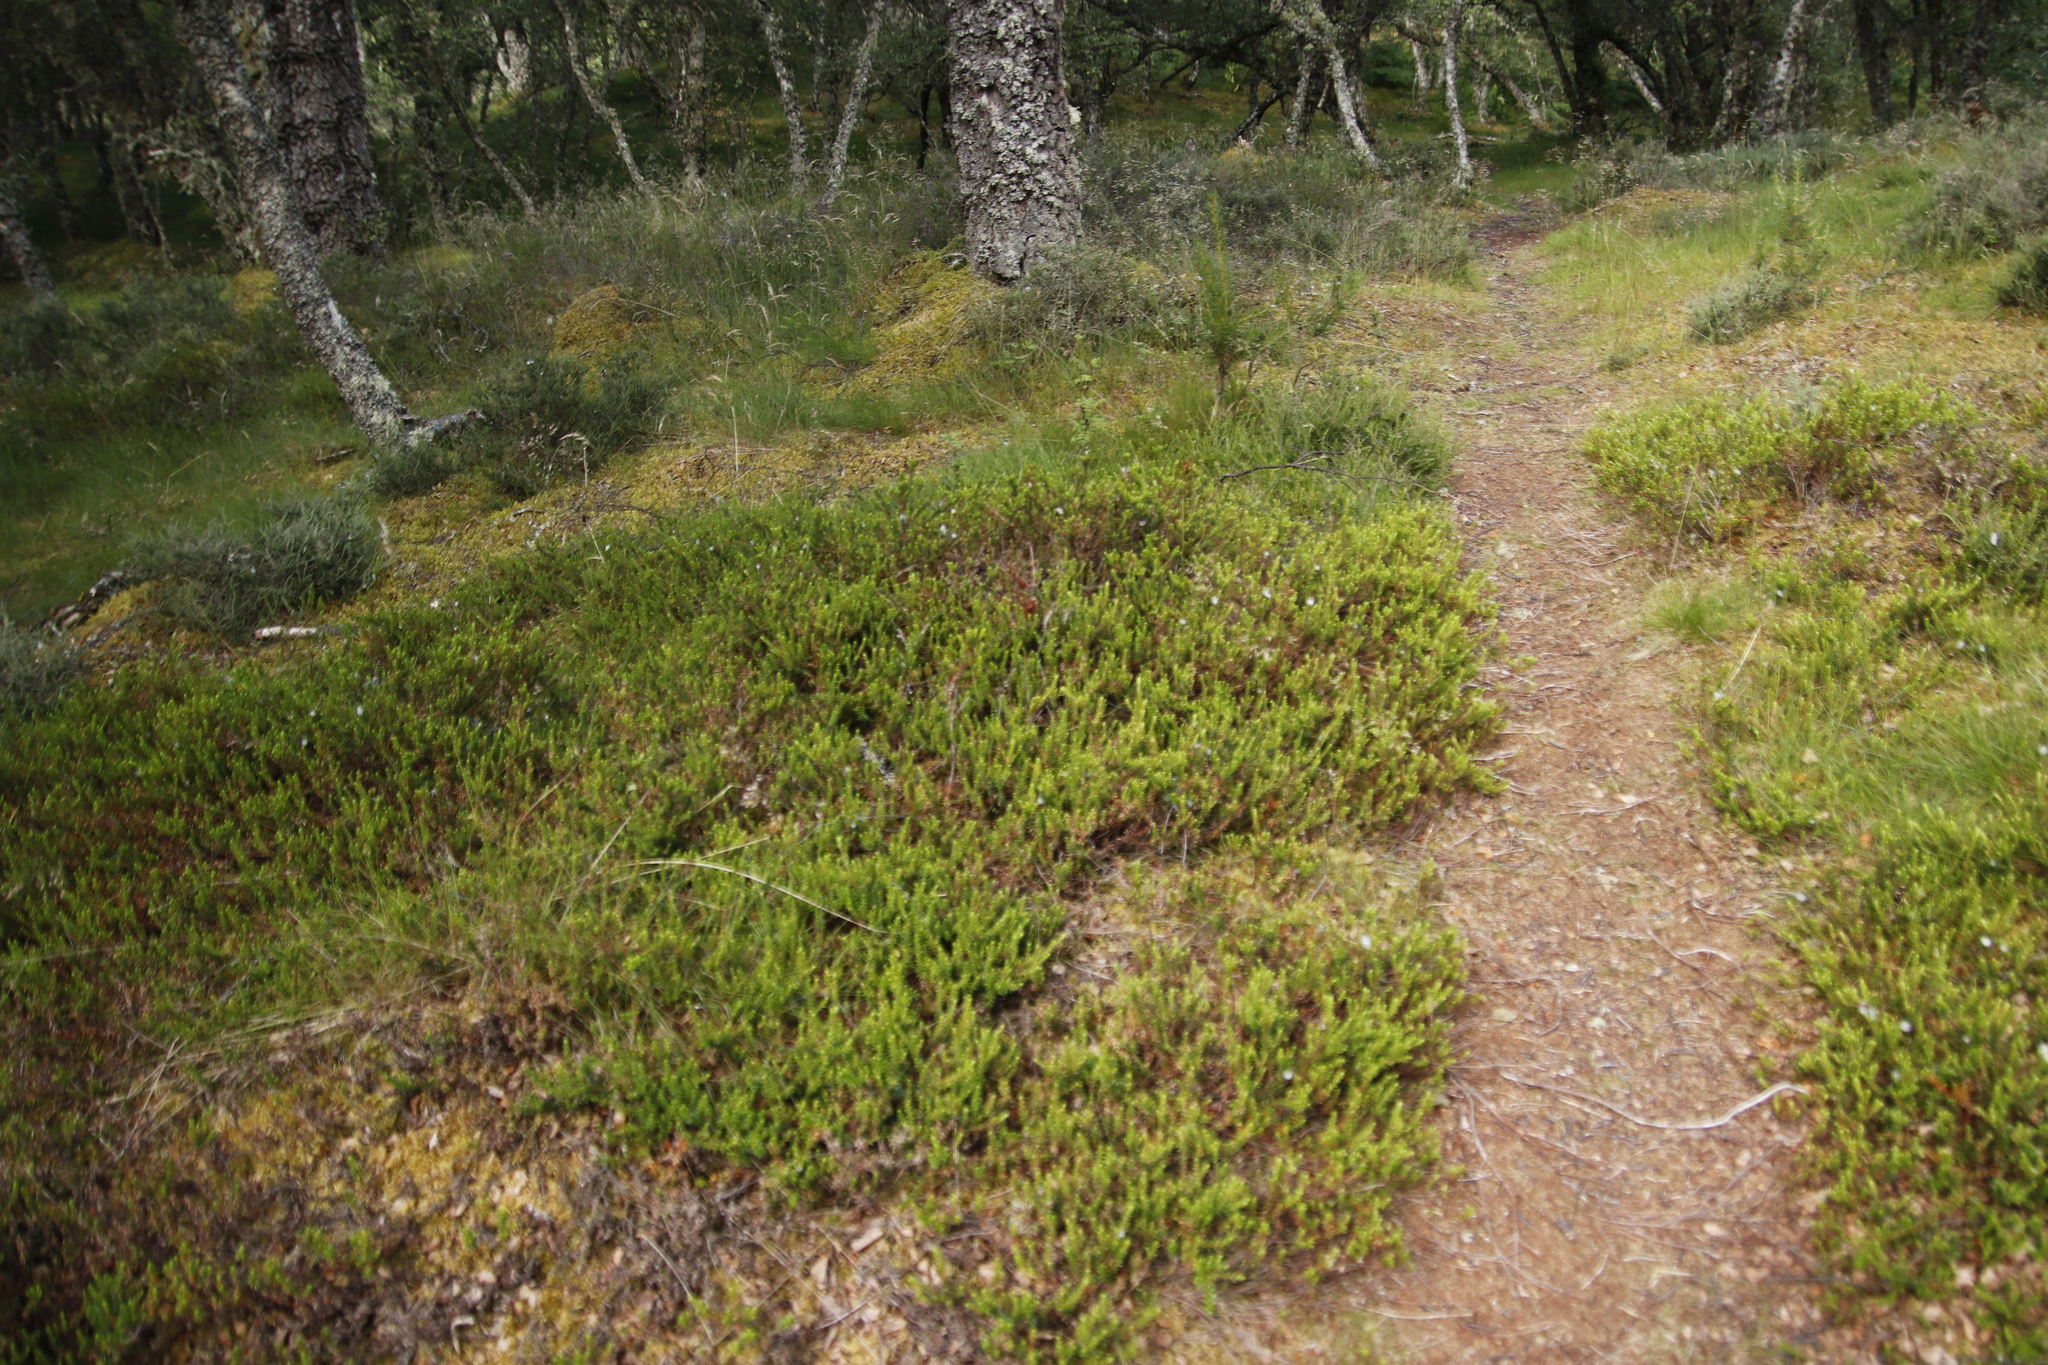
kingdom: Plantae
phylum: Tracheophyta
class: Magnoliopsida
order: Ericales
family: Ericaceae
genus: Vaccinium
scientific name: Vaccinium myrtillus
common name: Bilberry
